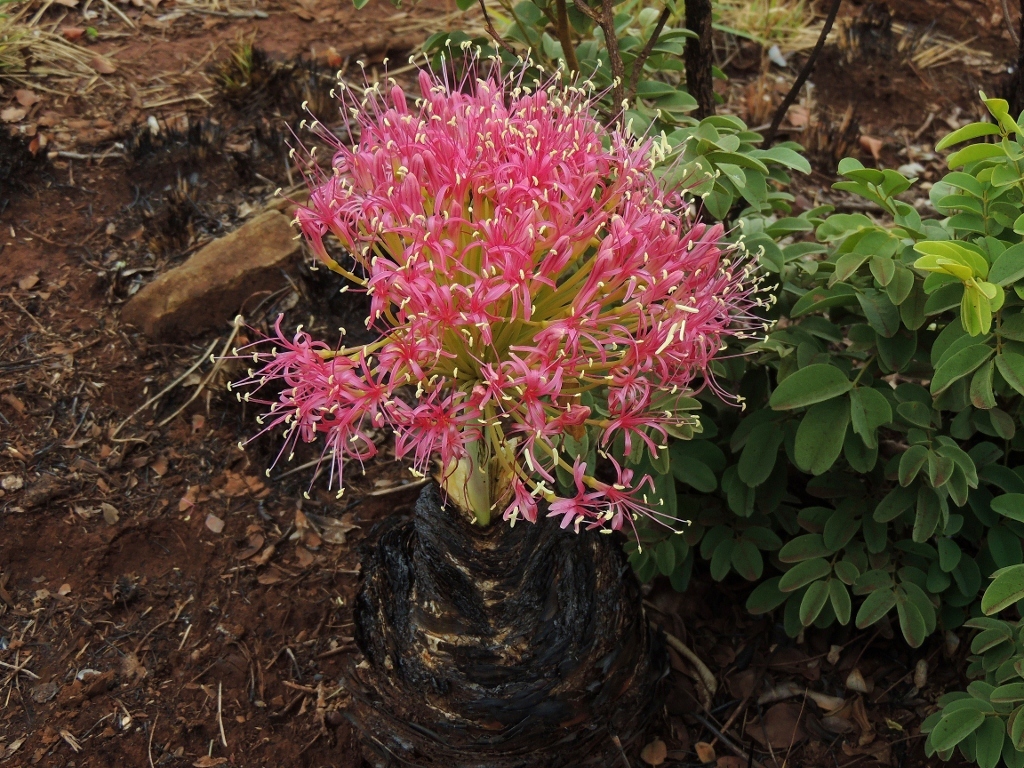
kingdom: Plantae
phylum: Tracheophyta
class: Liliopsida
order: Asparagales
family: Amaryllidaceae
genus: Boophone
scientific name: Boophone disticha
